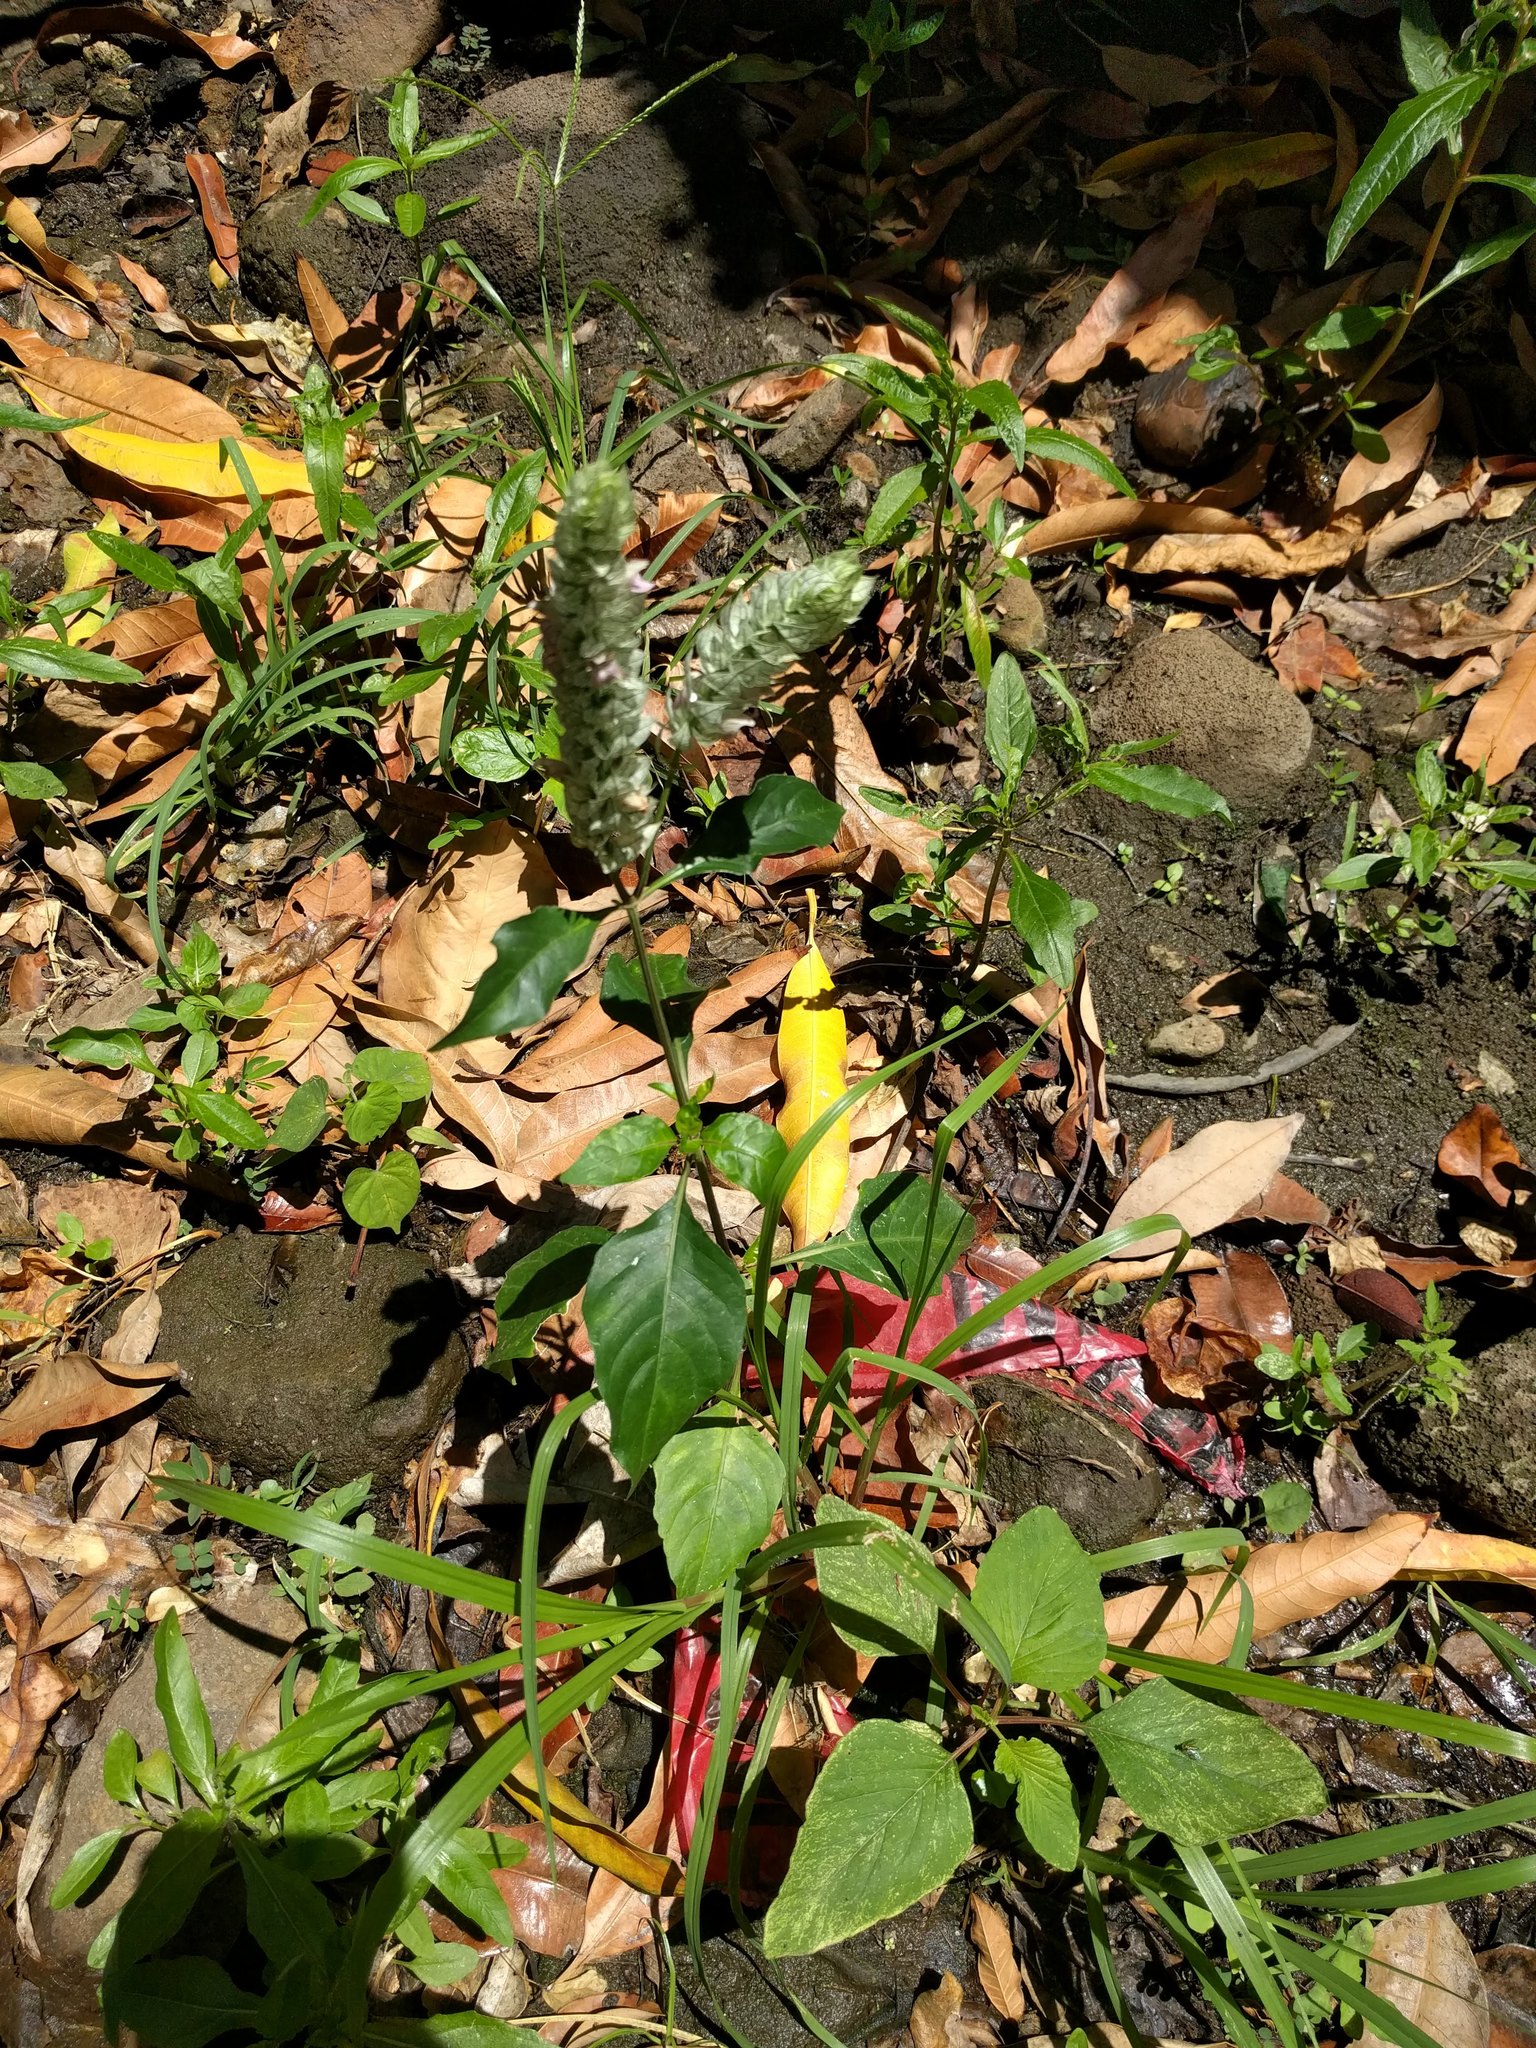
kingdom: Plantae
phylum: Tracheophyta
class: Magnoliopsida
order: Lamiales
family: Acanthaceae
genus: Justicia
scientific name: Justicia betonica
